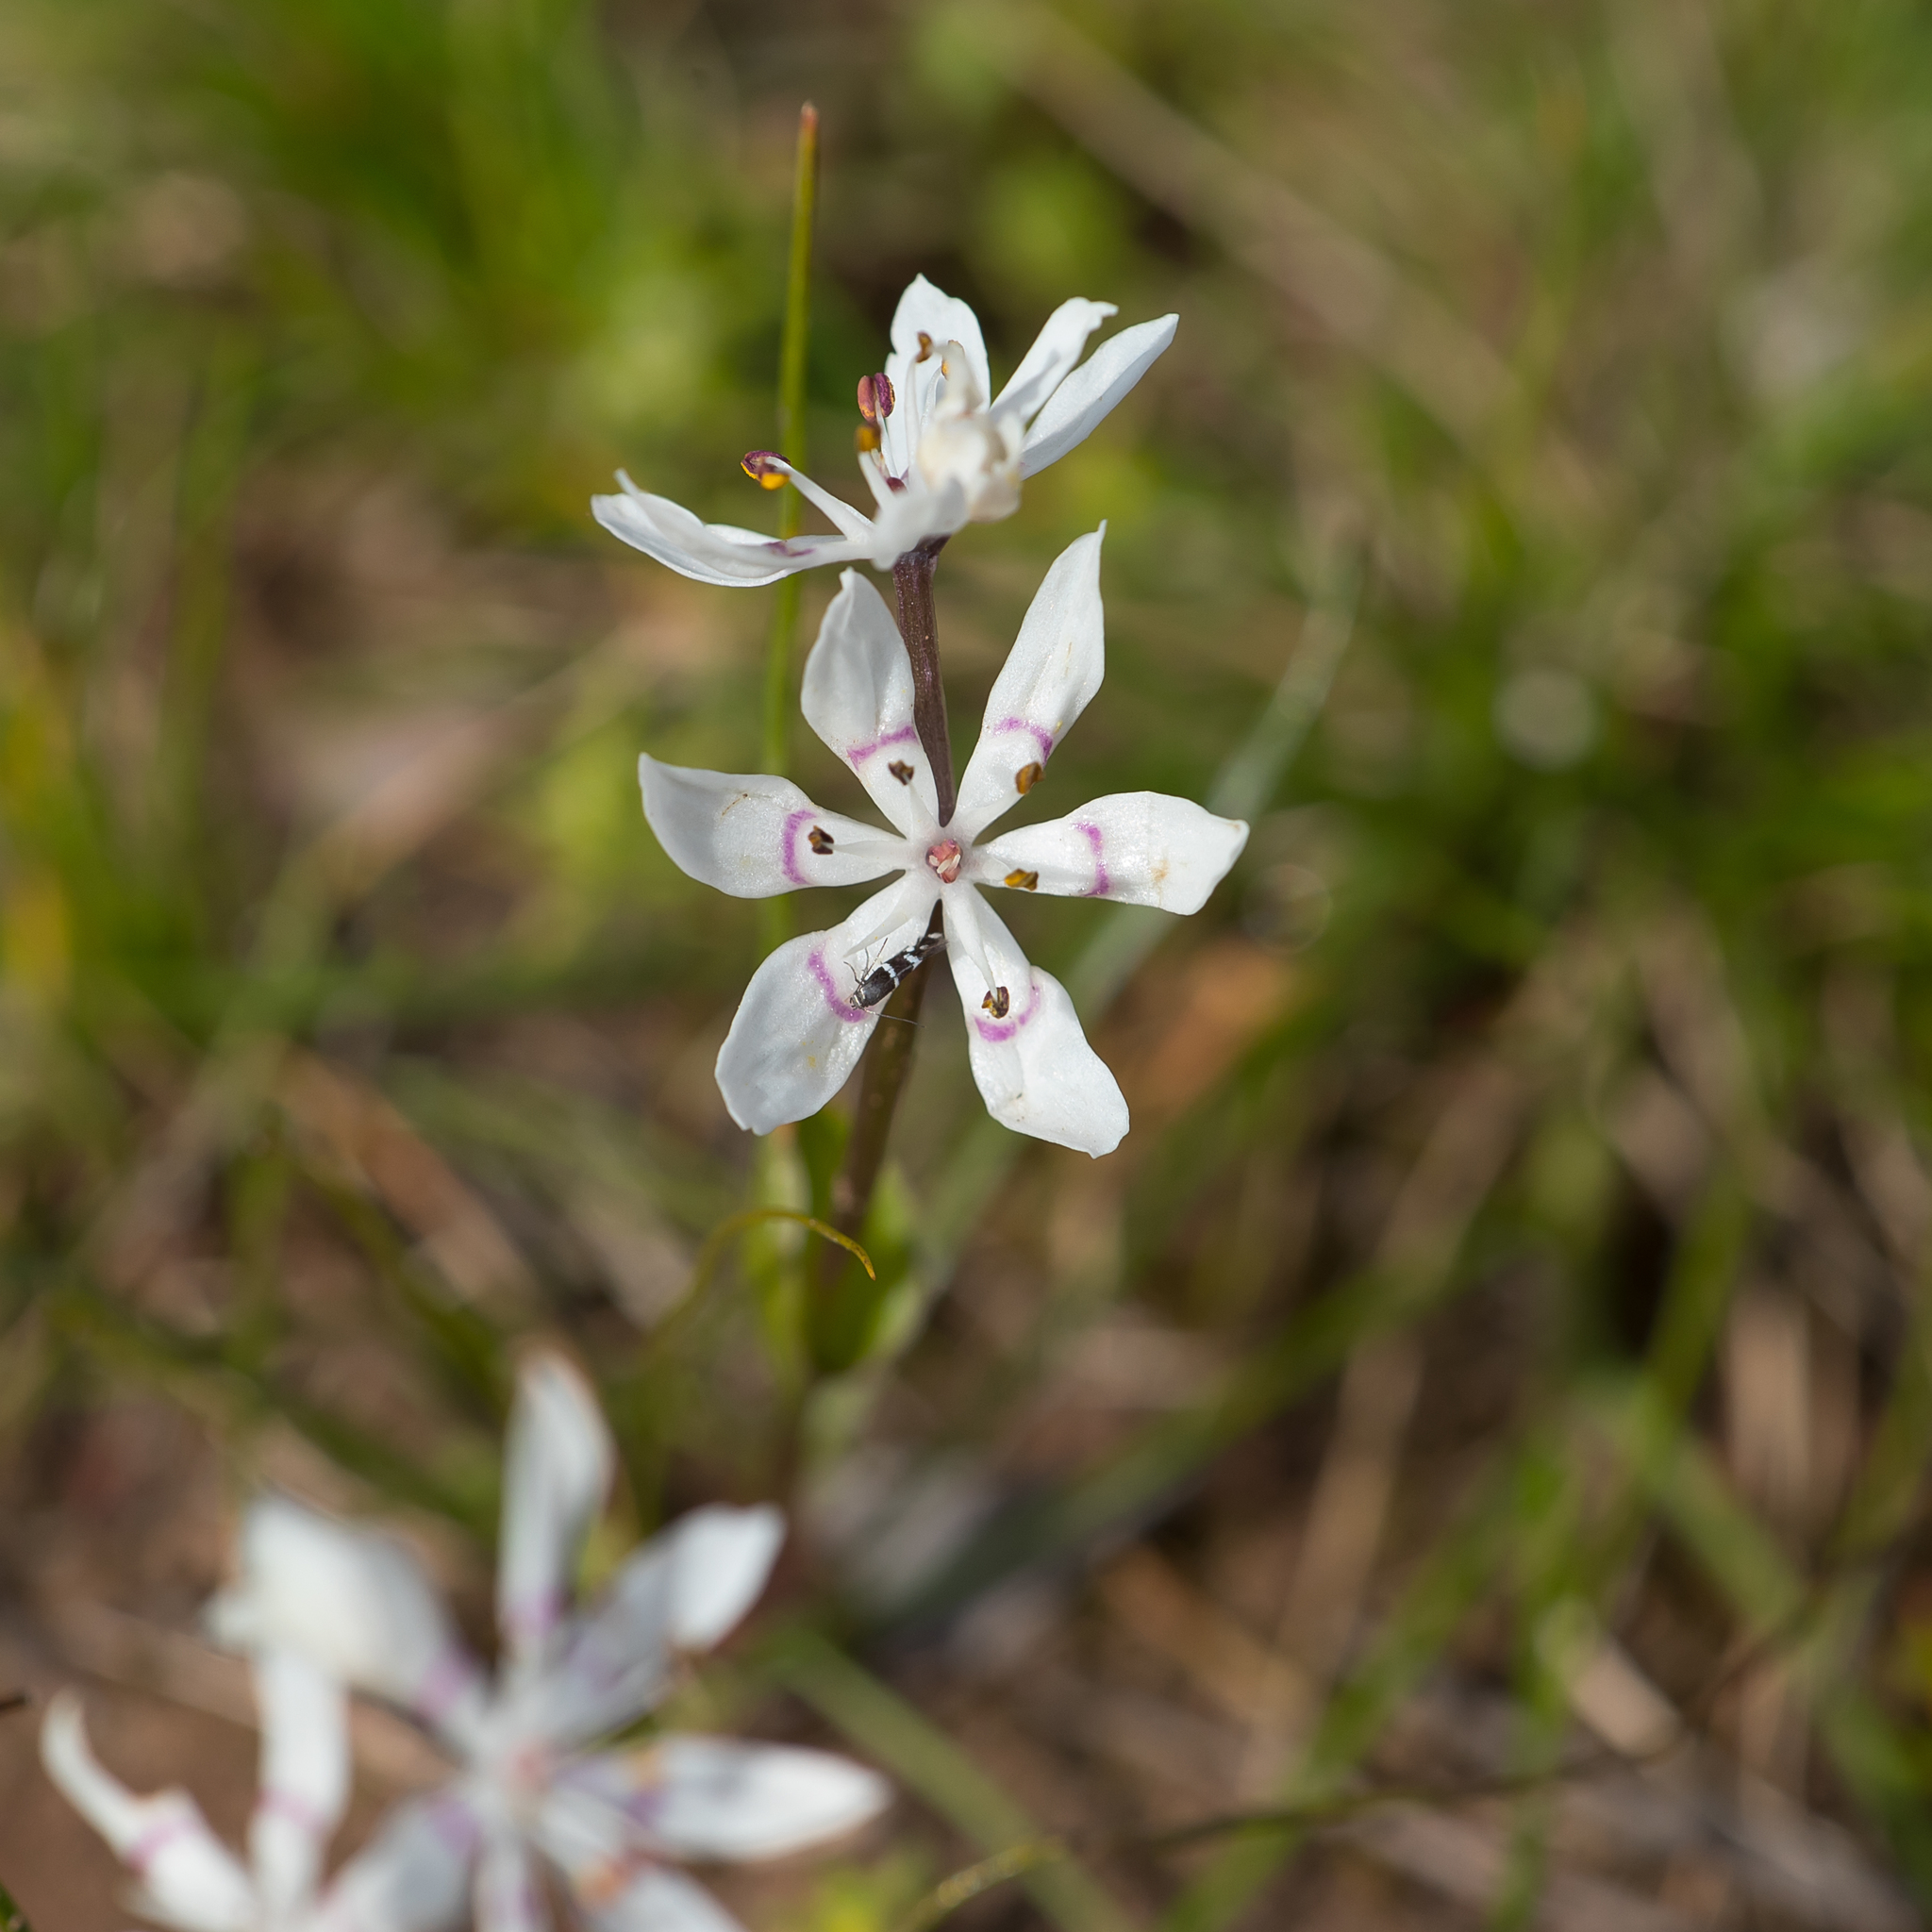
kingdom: Plantae
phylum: Tracheophyta
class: Liliopsida
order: Liliales
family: Colchicaceae
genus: Wurmbea
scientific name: Wurmbea dioica
